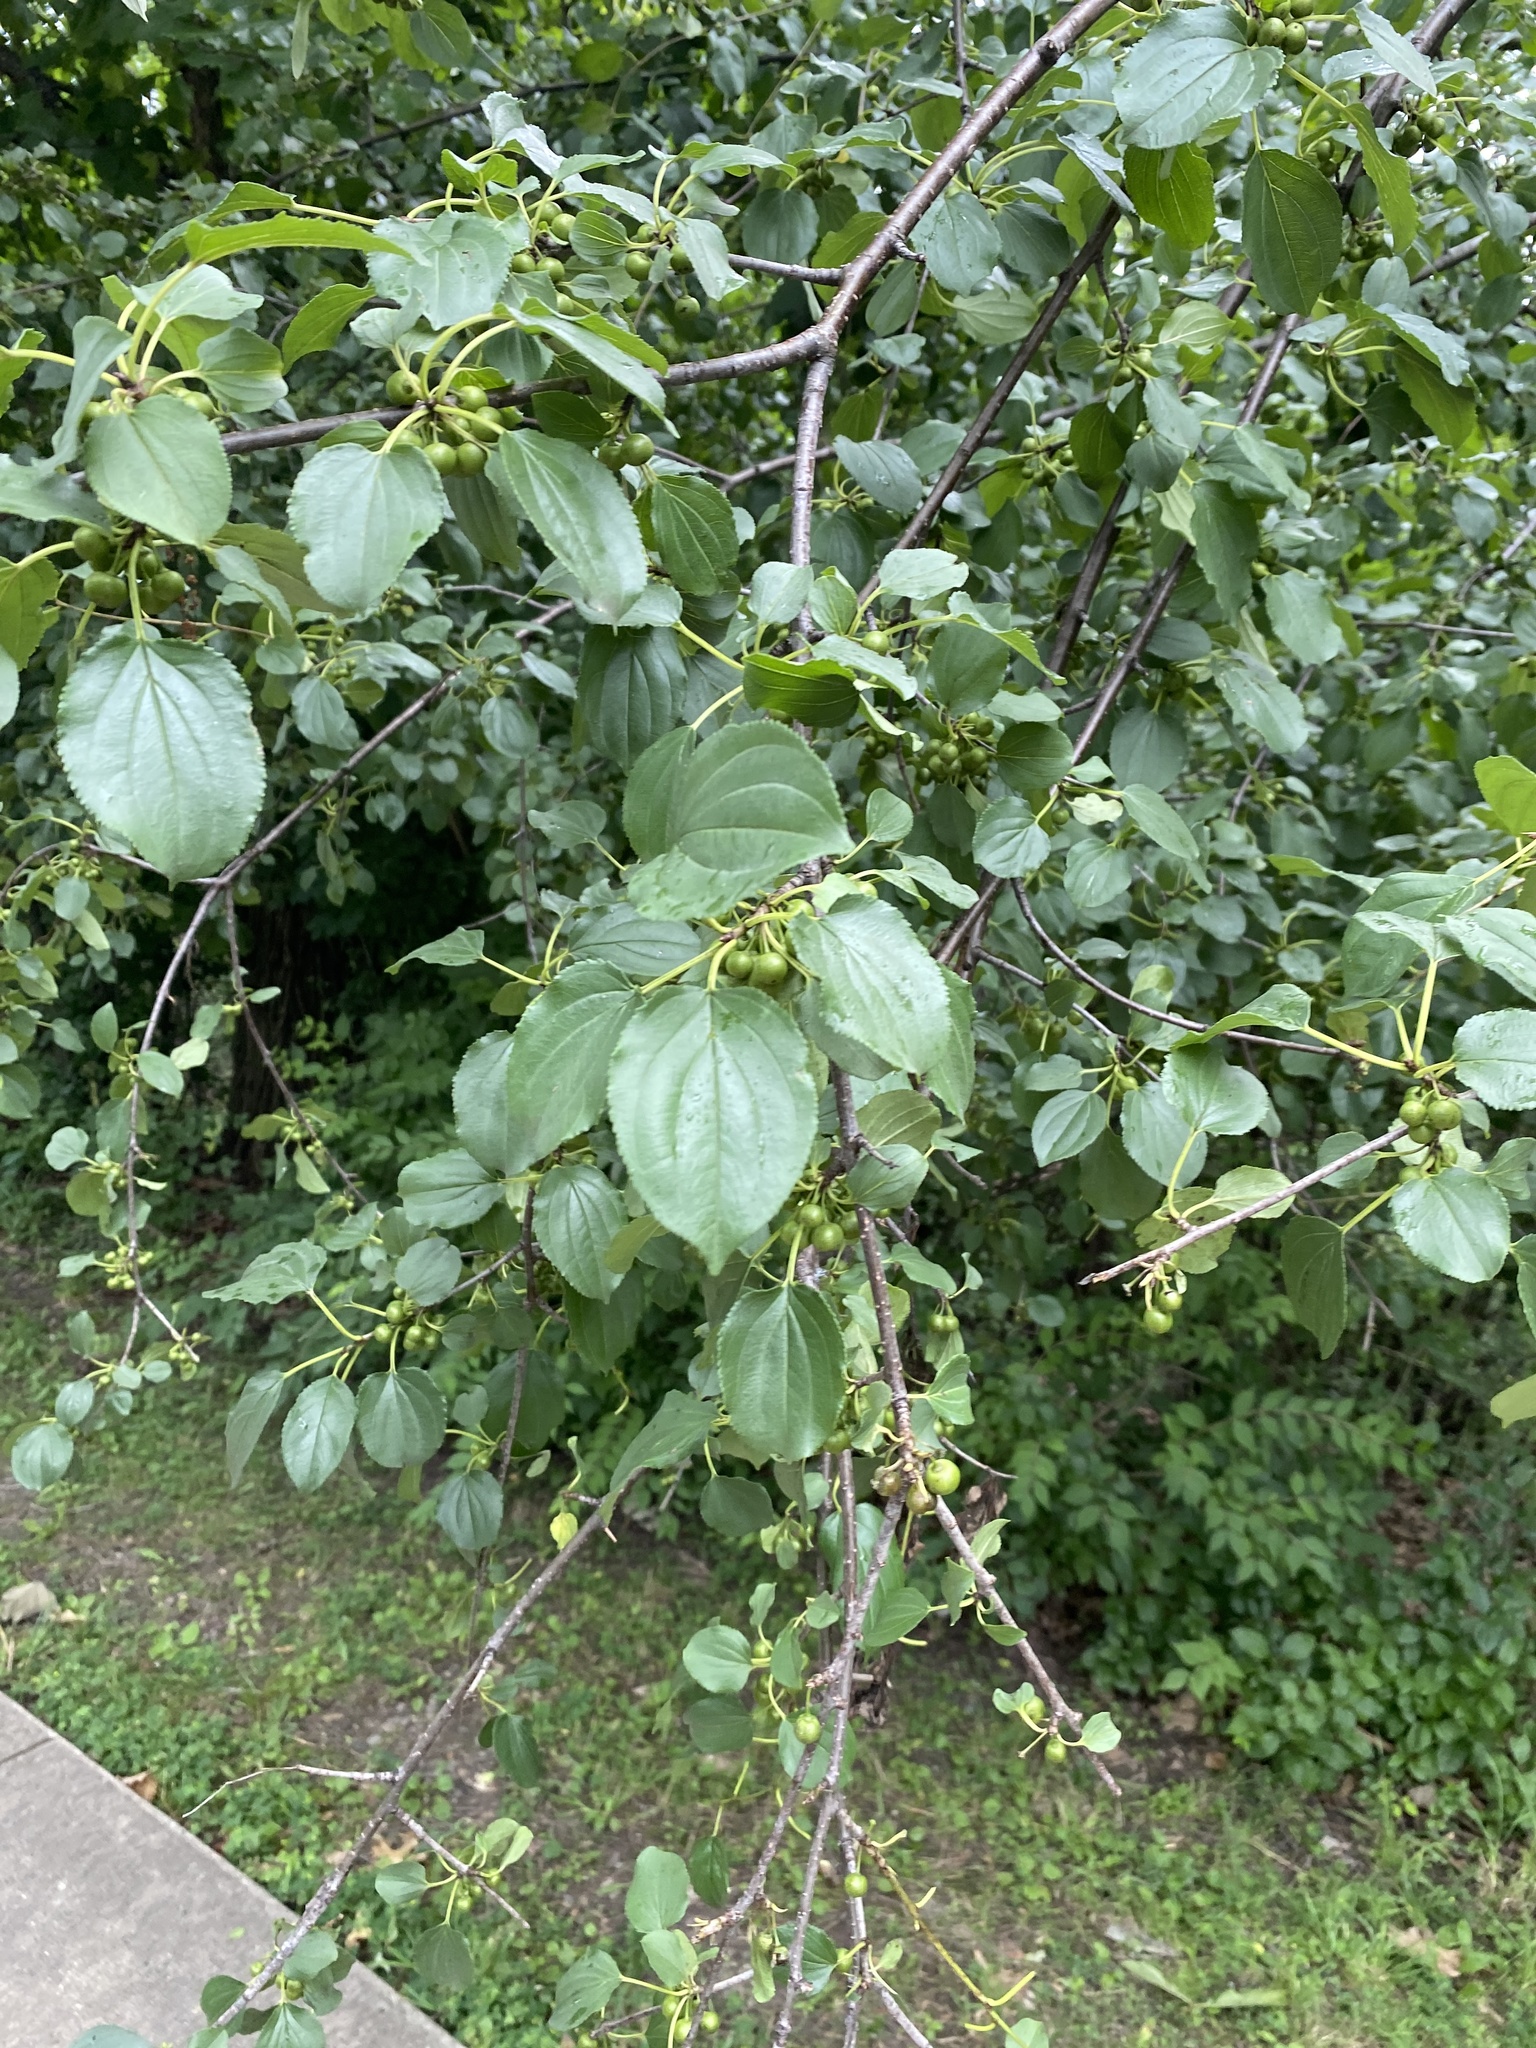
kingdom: Plantae
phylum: Tracheophyta
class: Magnoliopsida
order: Rosales
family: Rhamnaceae
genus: Rhamnus
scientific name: Rhamnus cathartica
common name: Common buckthorn
